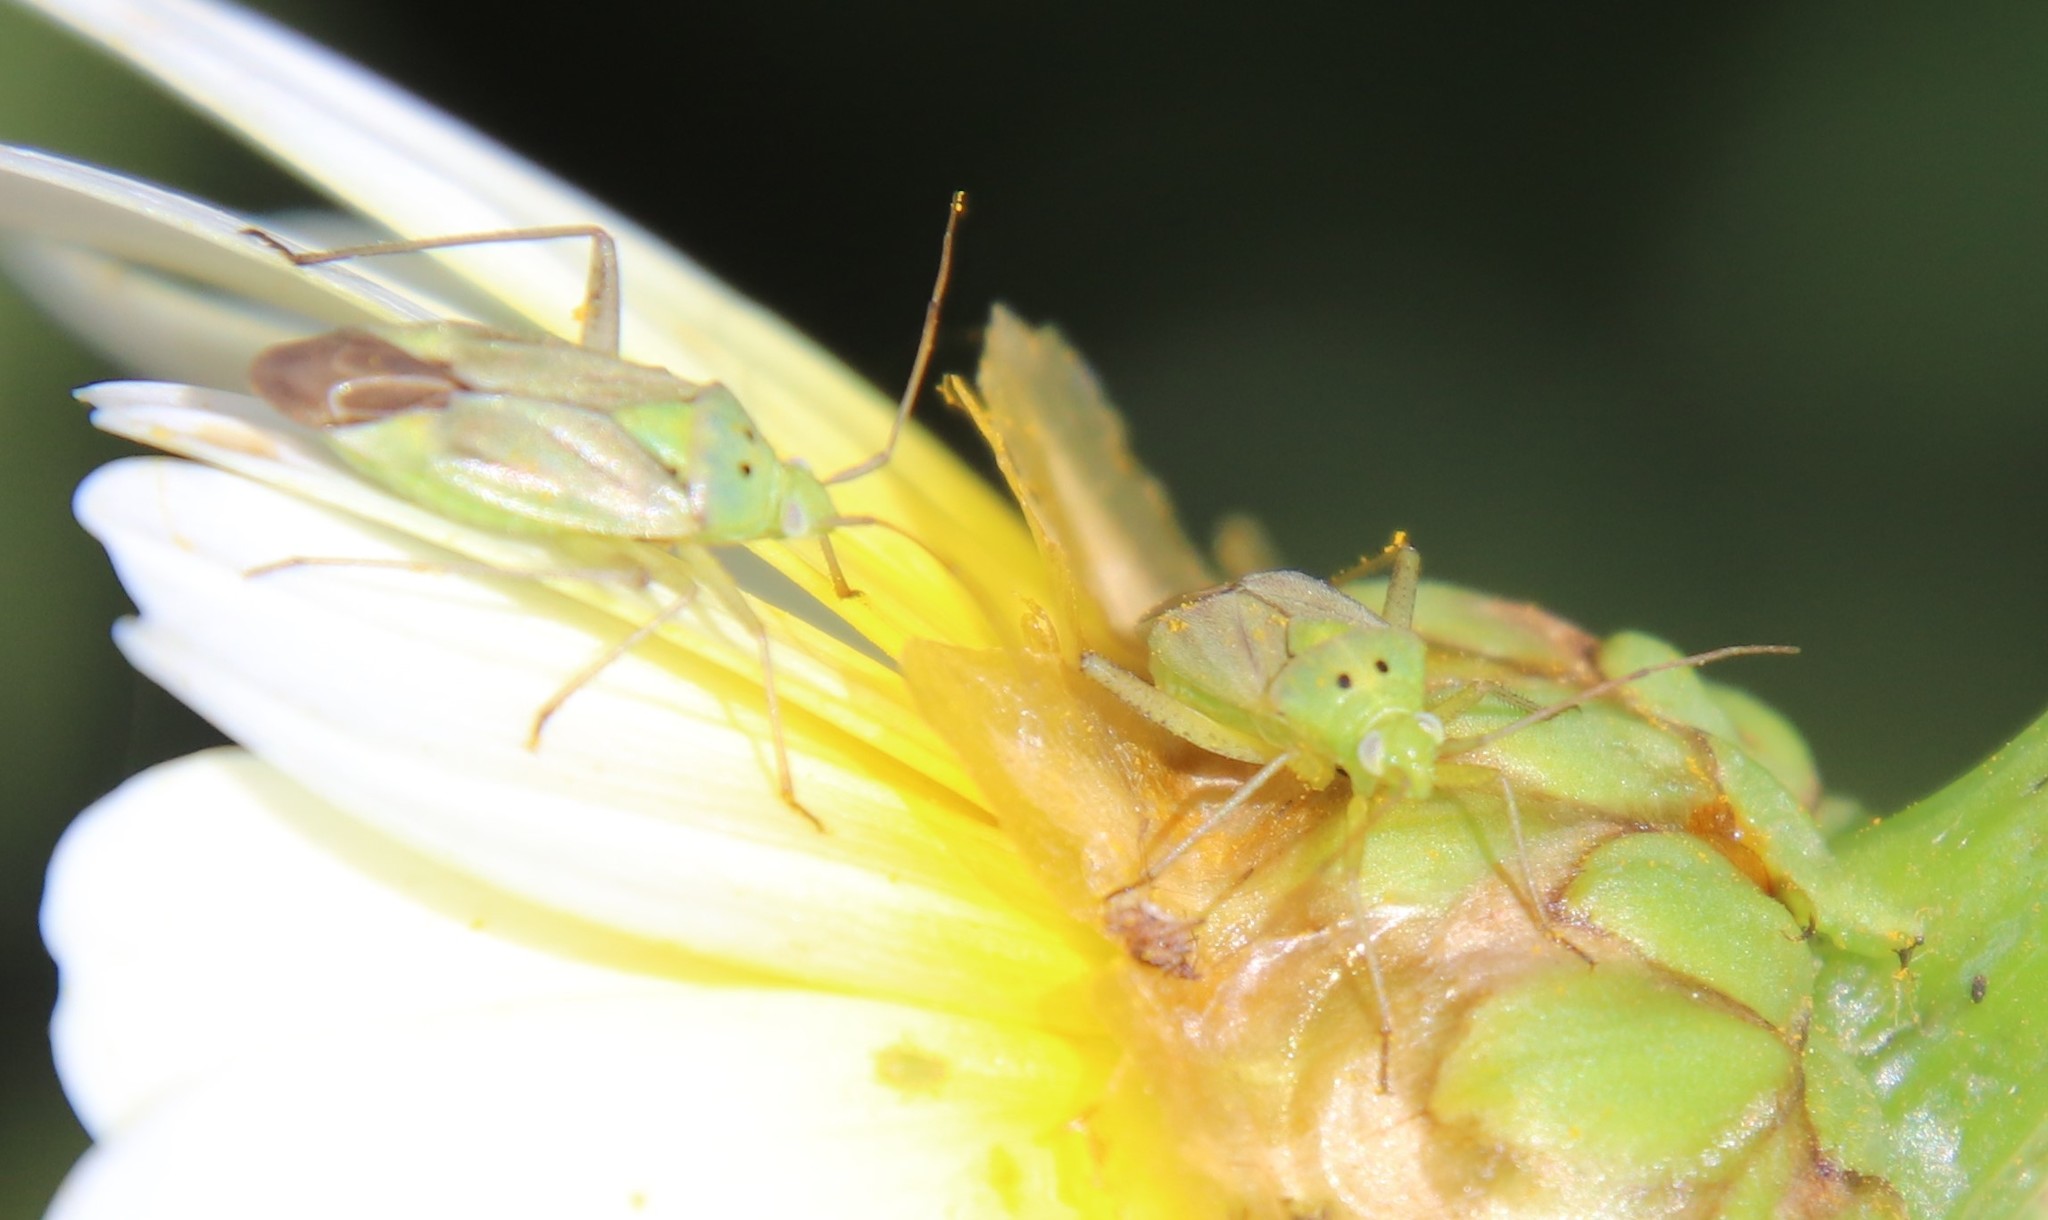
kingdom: Animalia
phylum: Arthropoda
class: Insecta
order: Hemiptera
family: Miridae
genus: Closterotomus
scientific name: Closterotomus norvegicus
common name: Plant bug
